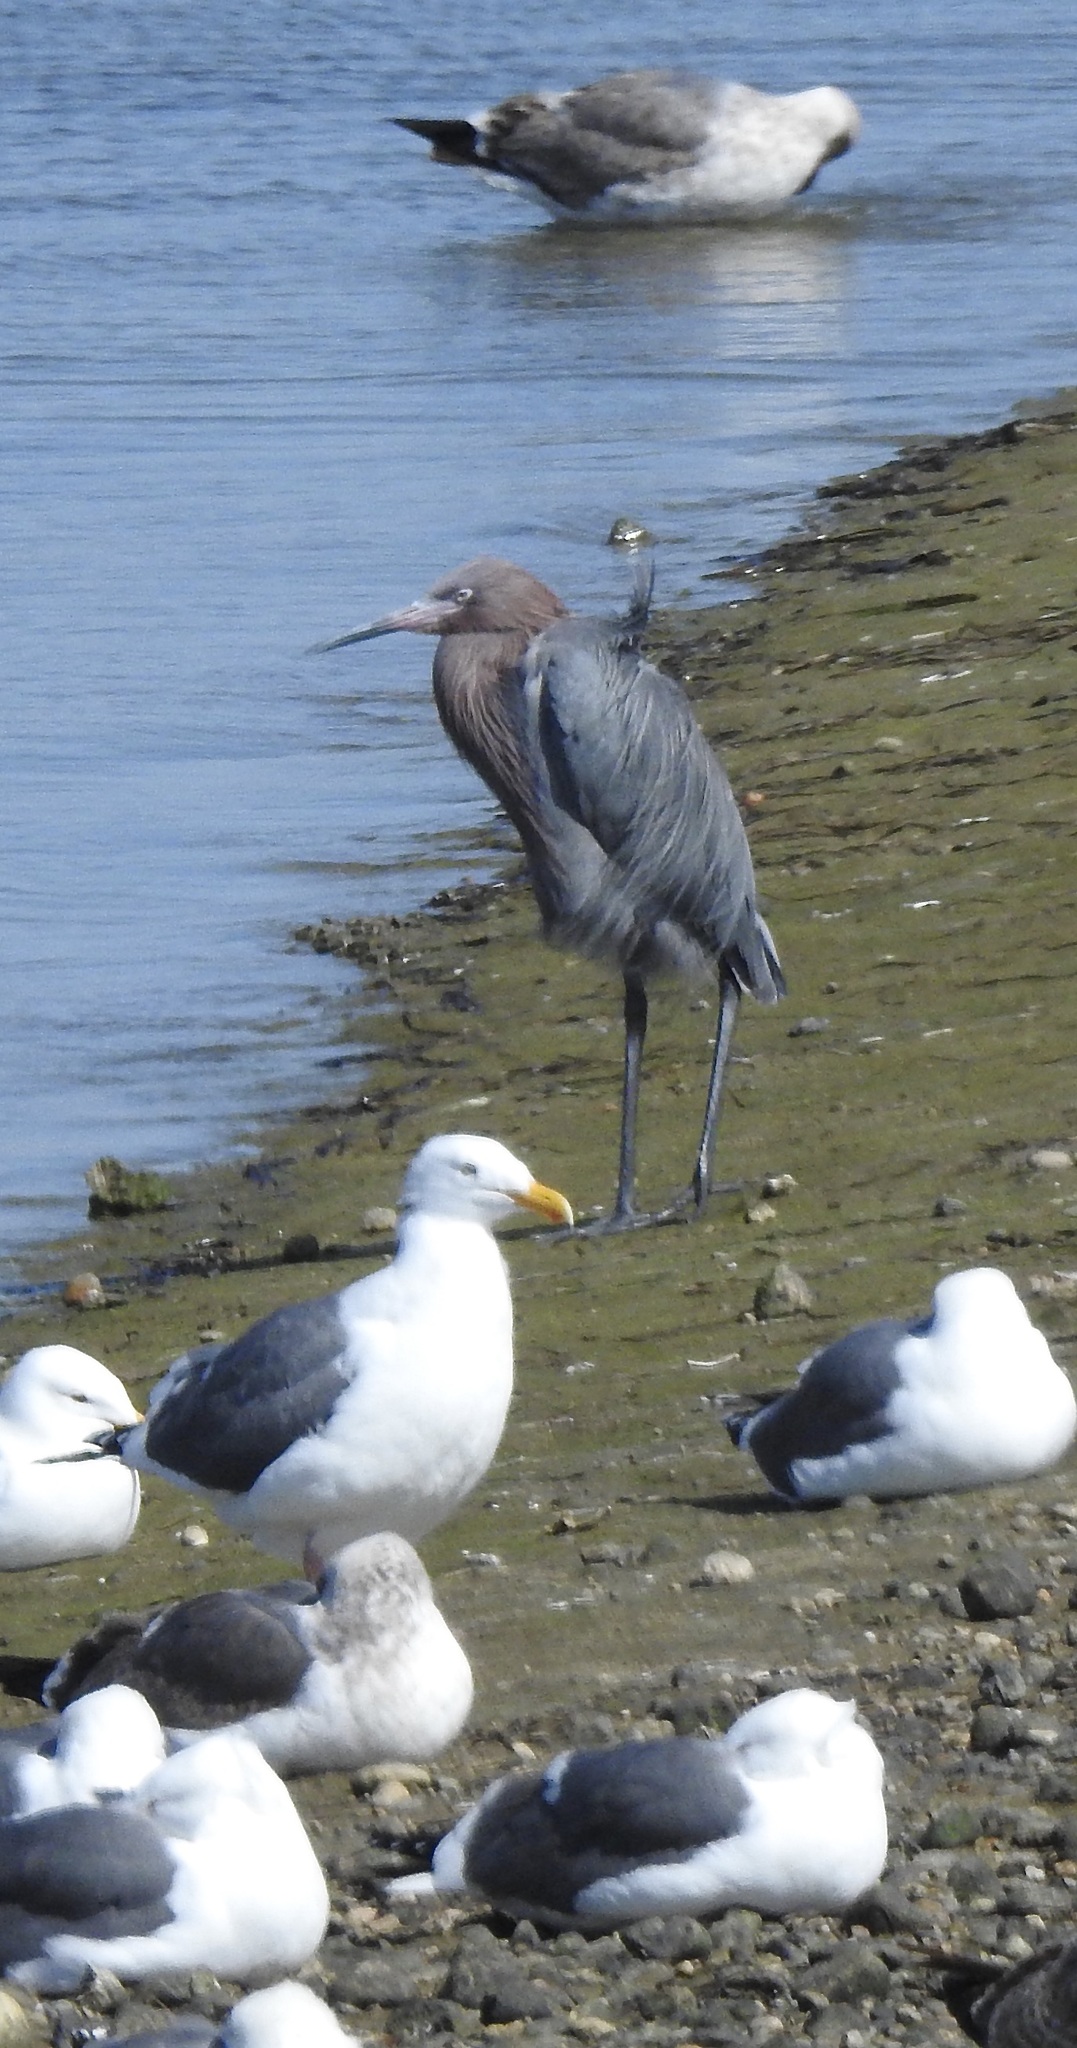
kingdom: Animalia
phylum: Chordata
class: Aves
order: Pelecaniformes
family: Ardeidae
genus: Egretta
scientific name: Egretta rufescens
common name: Reddish egret
